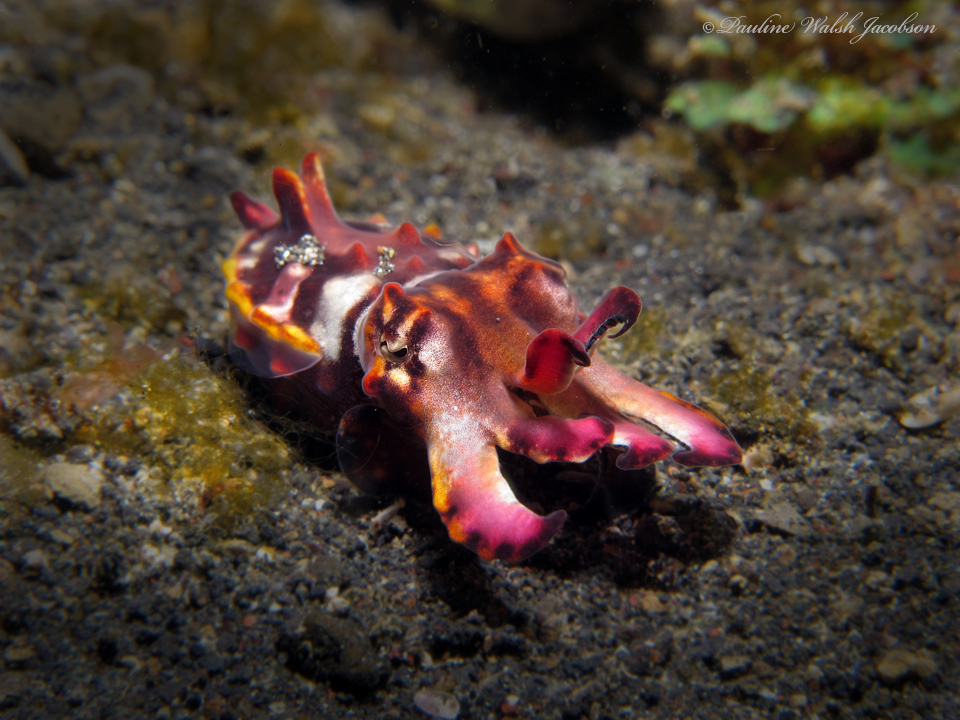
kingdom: Animalia
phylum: Mollusca
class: Cephalopoda
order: Sepiida
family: Sepiidae
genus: Ascarosepion
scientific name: Ascarosepion pfefferi
